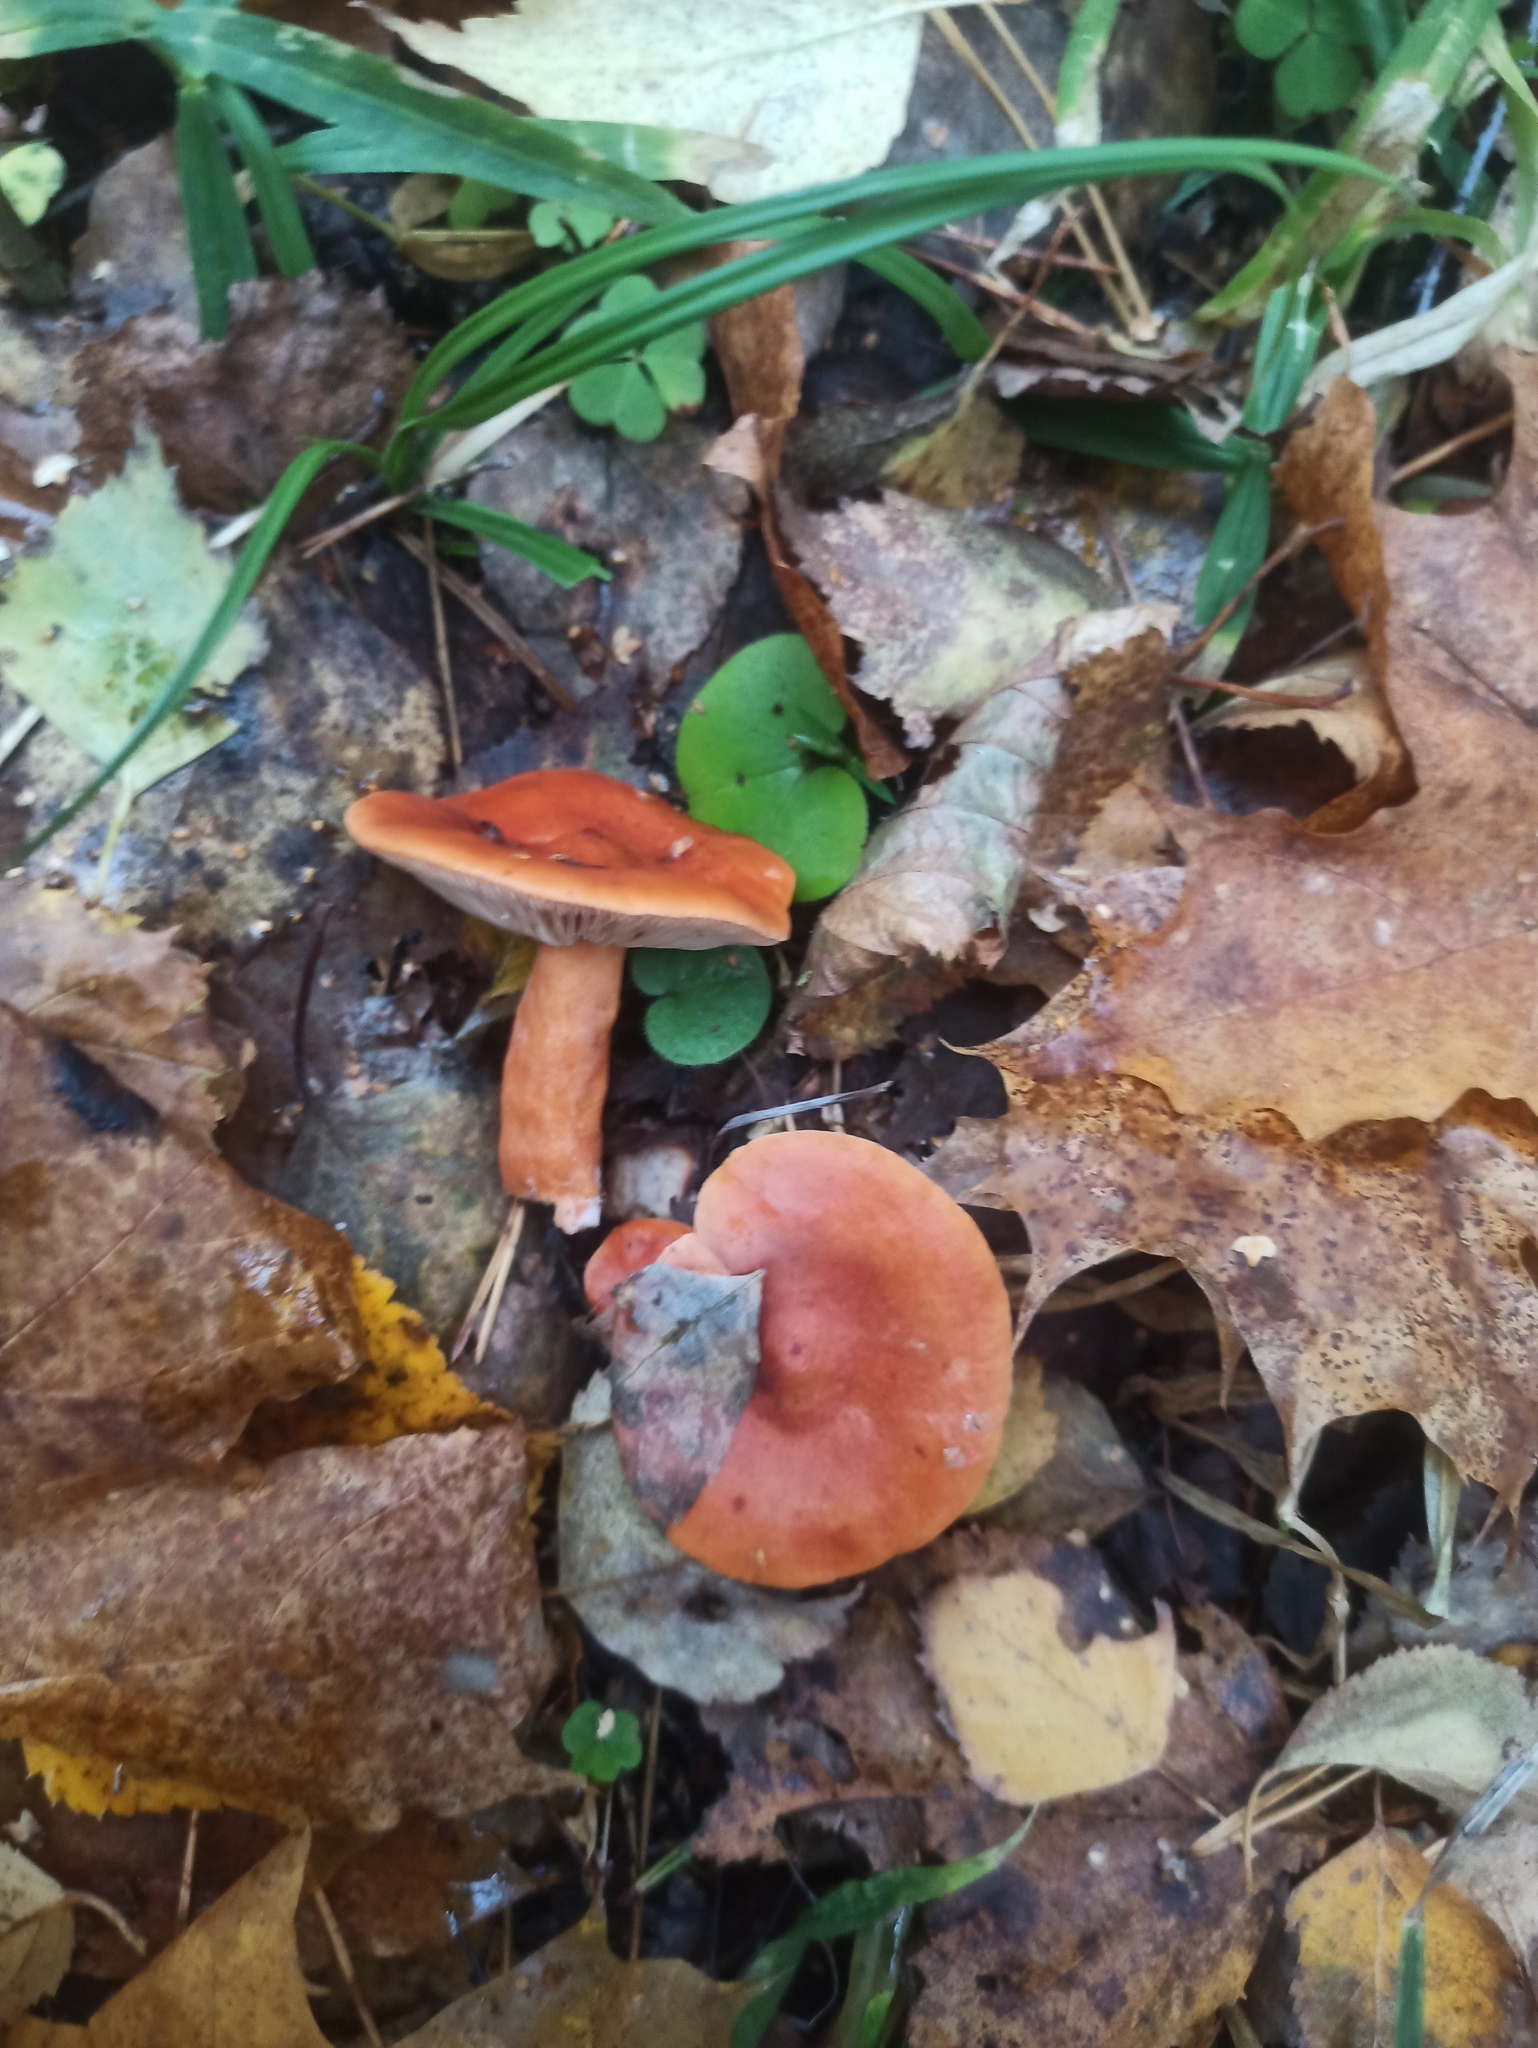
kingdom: Fungi
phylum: Basidiomycota
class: Agaricomycetes
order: Russulales
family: Russulaceae
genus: Lactarius
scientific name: Lactarius rufus
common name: Rufous milk-cap
